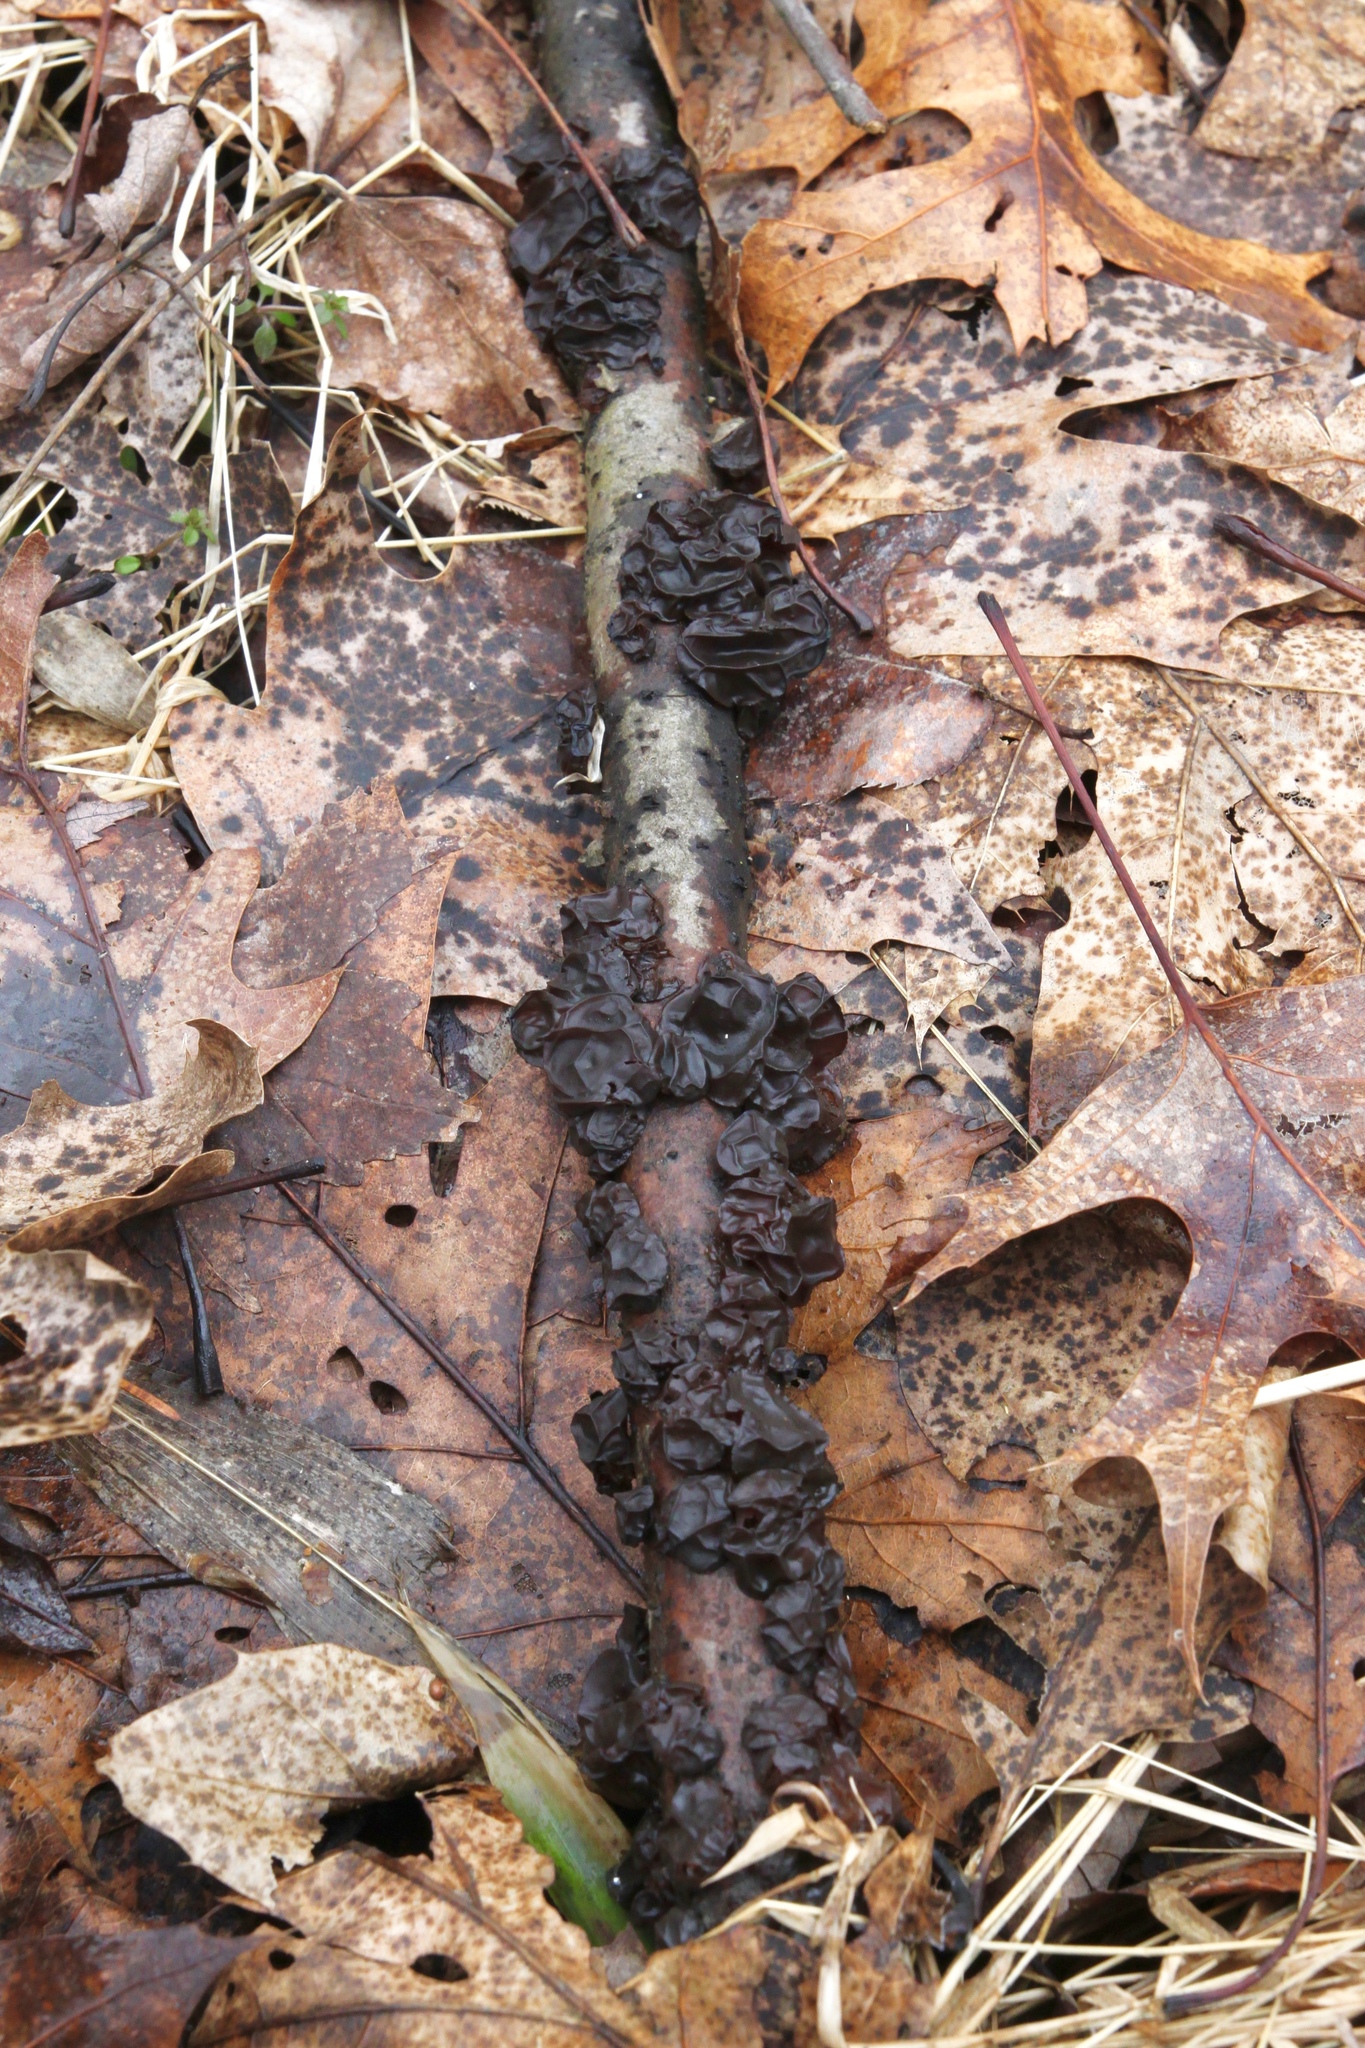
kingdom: Fungi
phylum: Basidiomycota
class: Agaricomycetes
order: Auriculariales
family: Auriculariaceae
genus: Exidia
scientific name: Exidia
